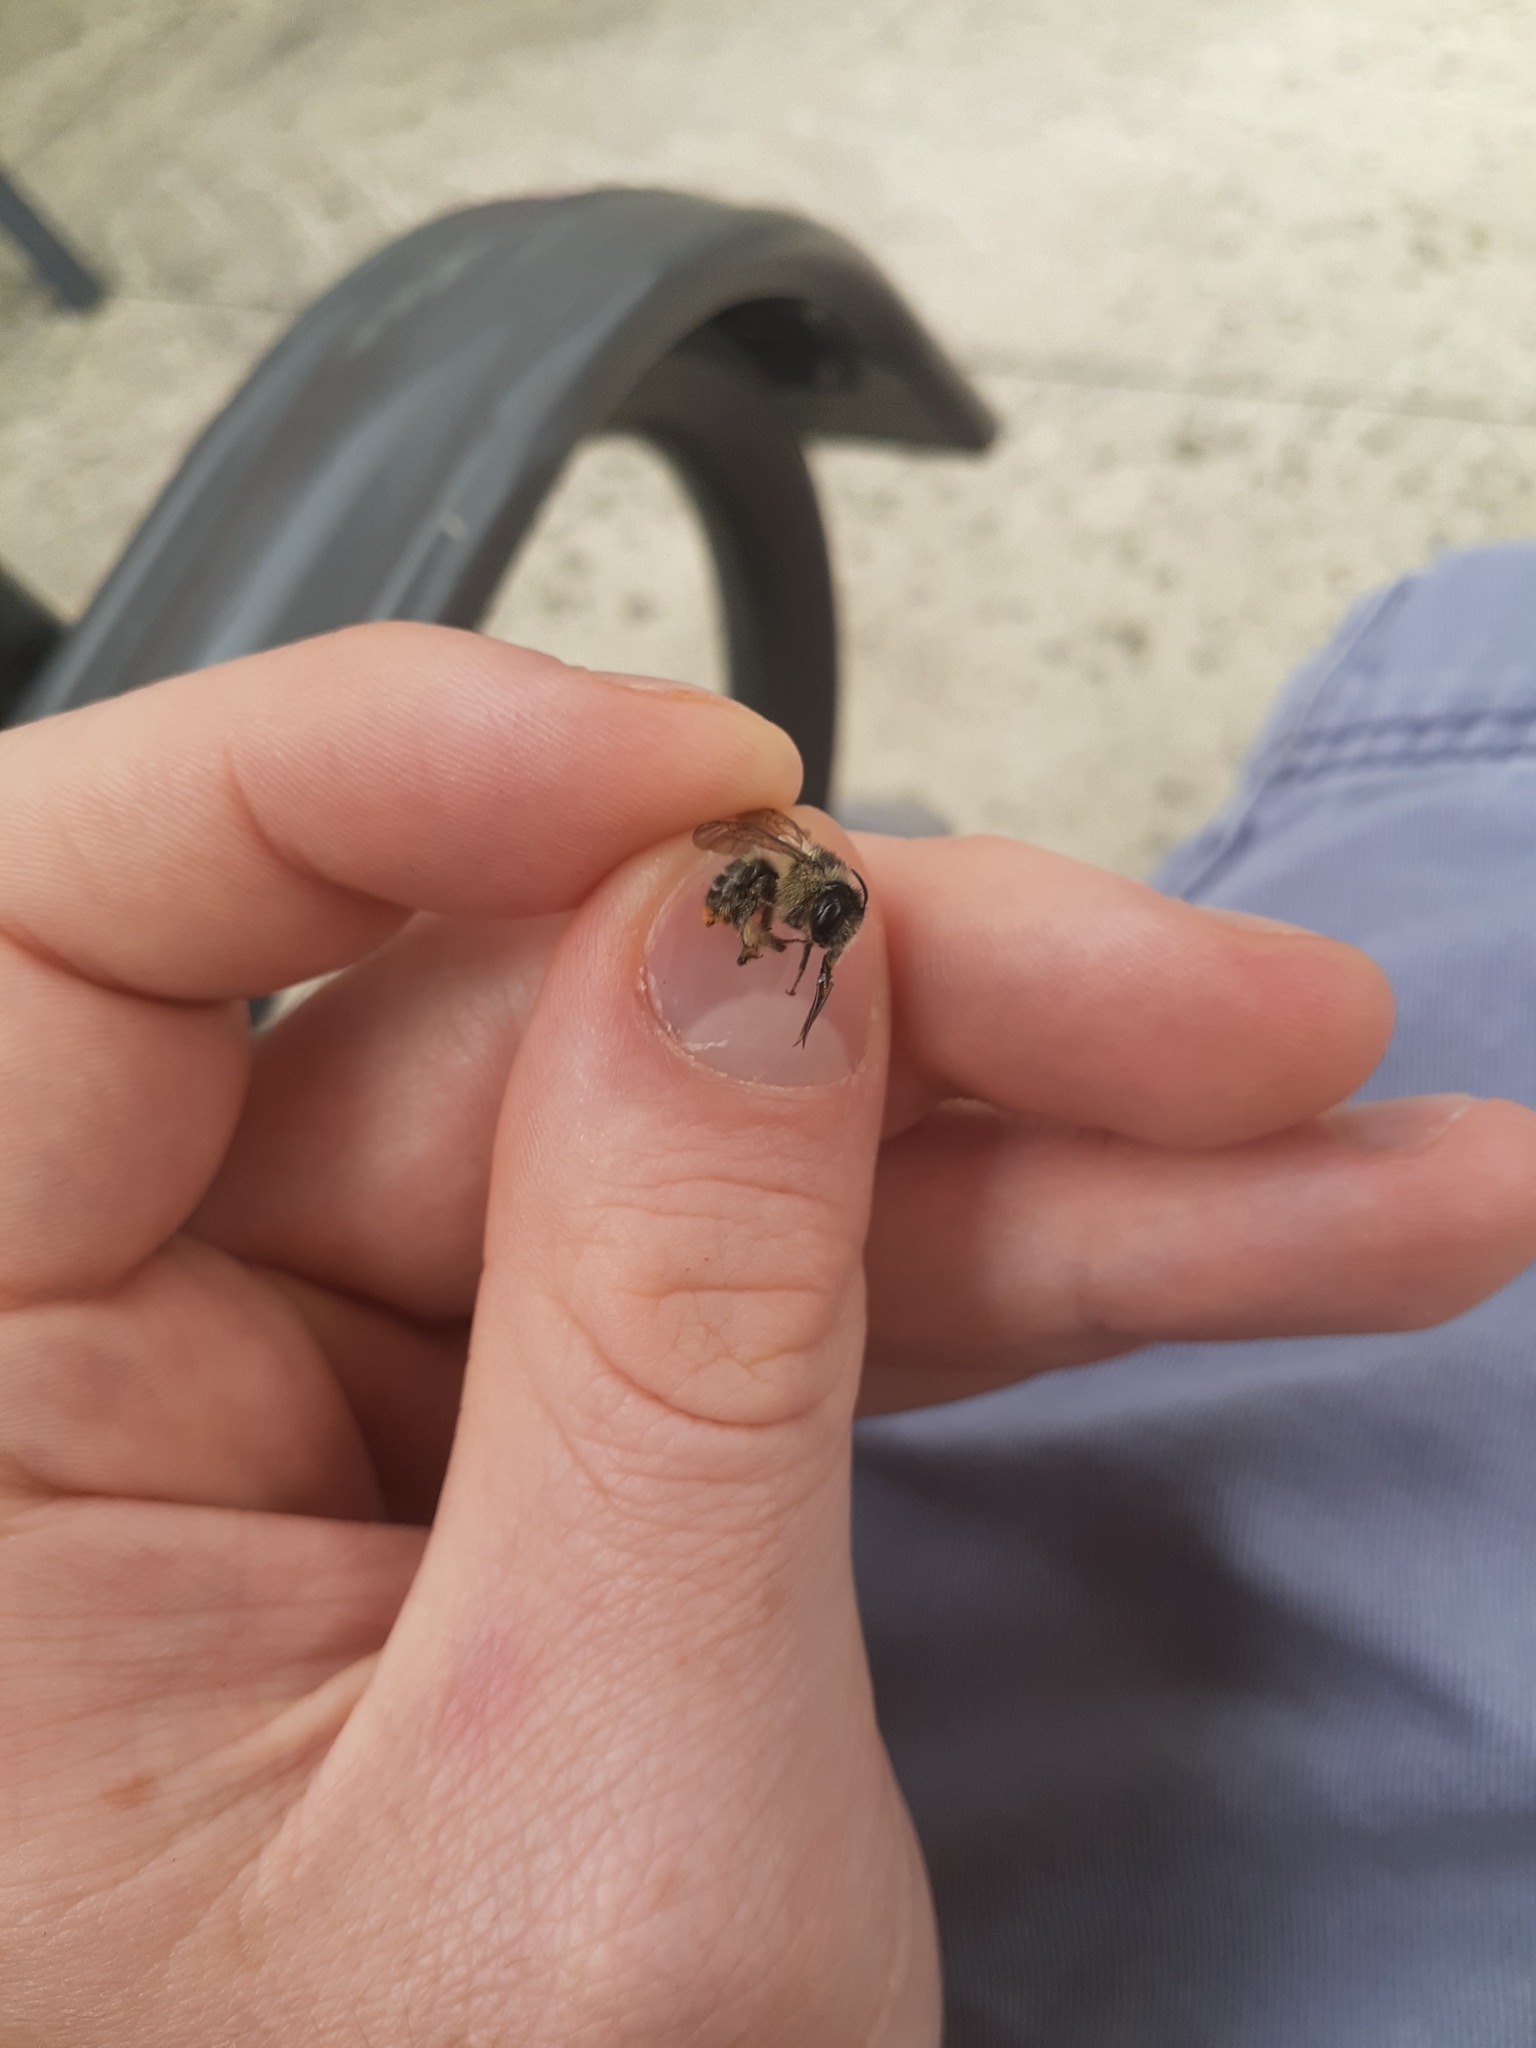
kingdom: Animalia
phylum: Arthropoda
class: Insecta
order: Hymenoptera
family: Apidae
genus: Anthophora
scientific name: Anthophora terminalis
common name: Orange-tipped wood-digger bee
